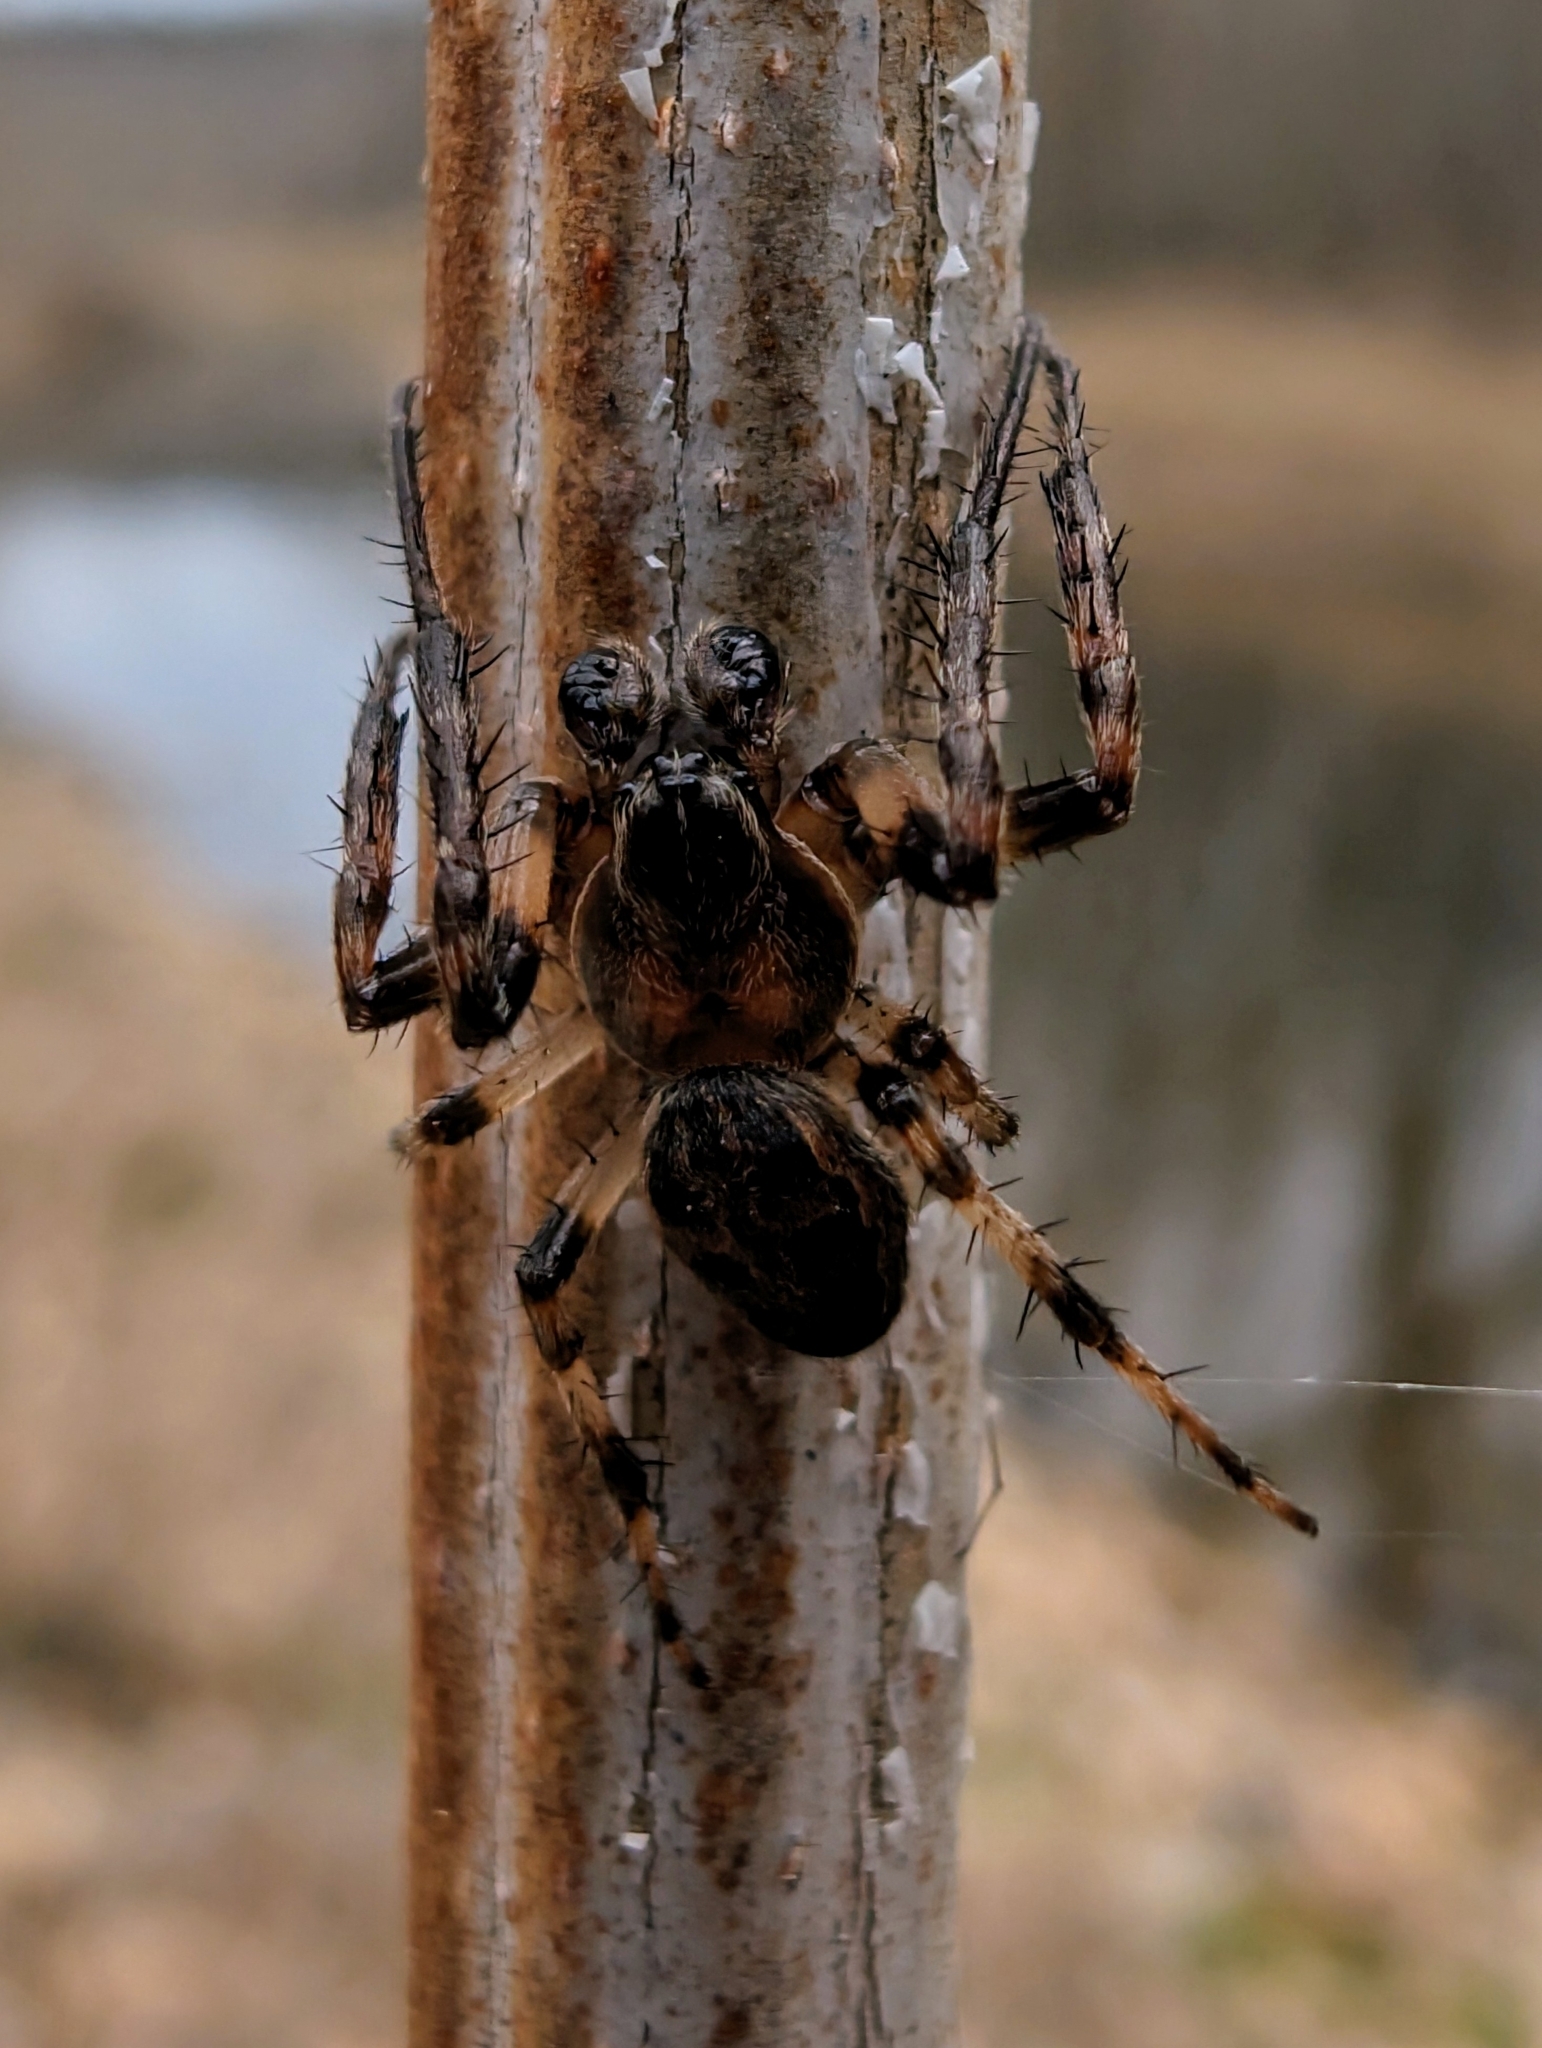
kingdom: Animalia
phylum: Arthropoda
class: Arachnida
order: Araneae
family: Araneidae
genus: Larinioides
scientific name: Larinioides cornutus
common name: Furrow orbweaver
